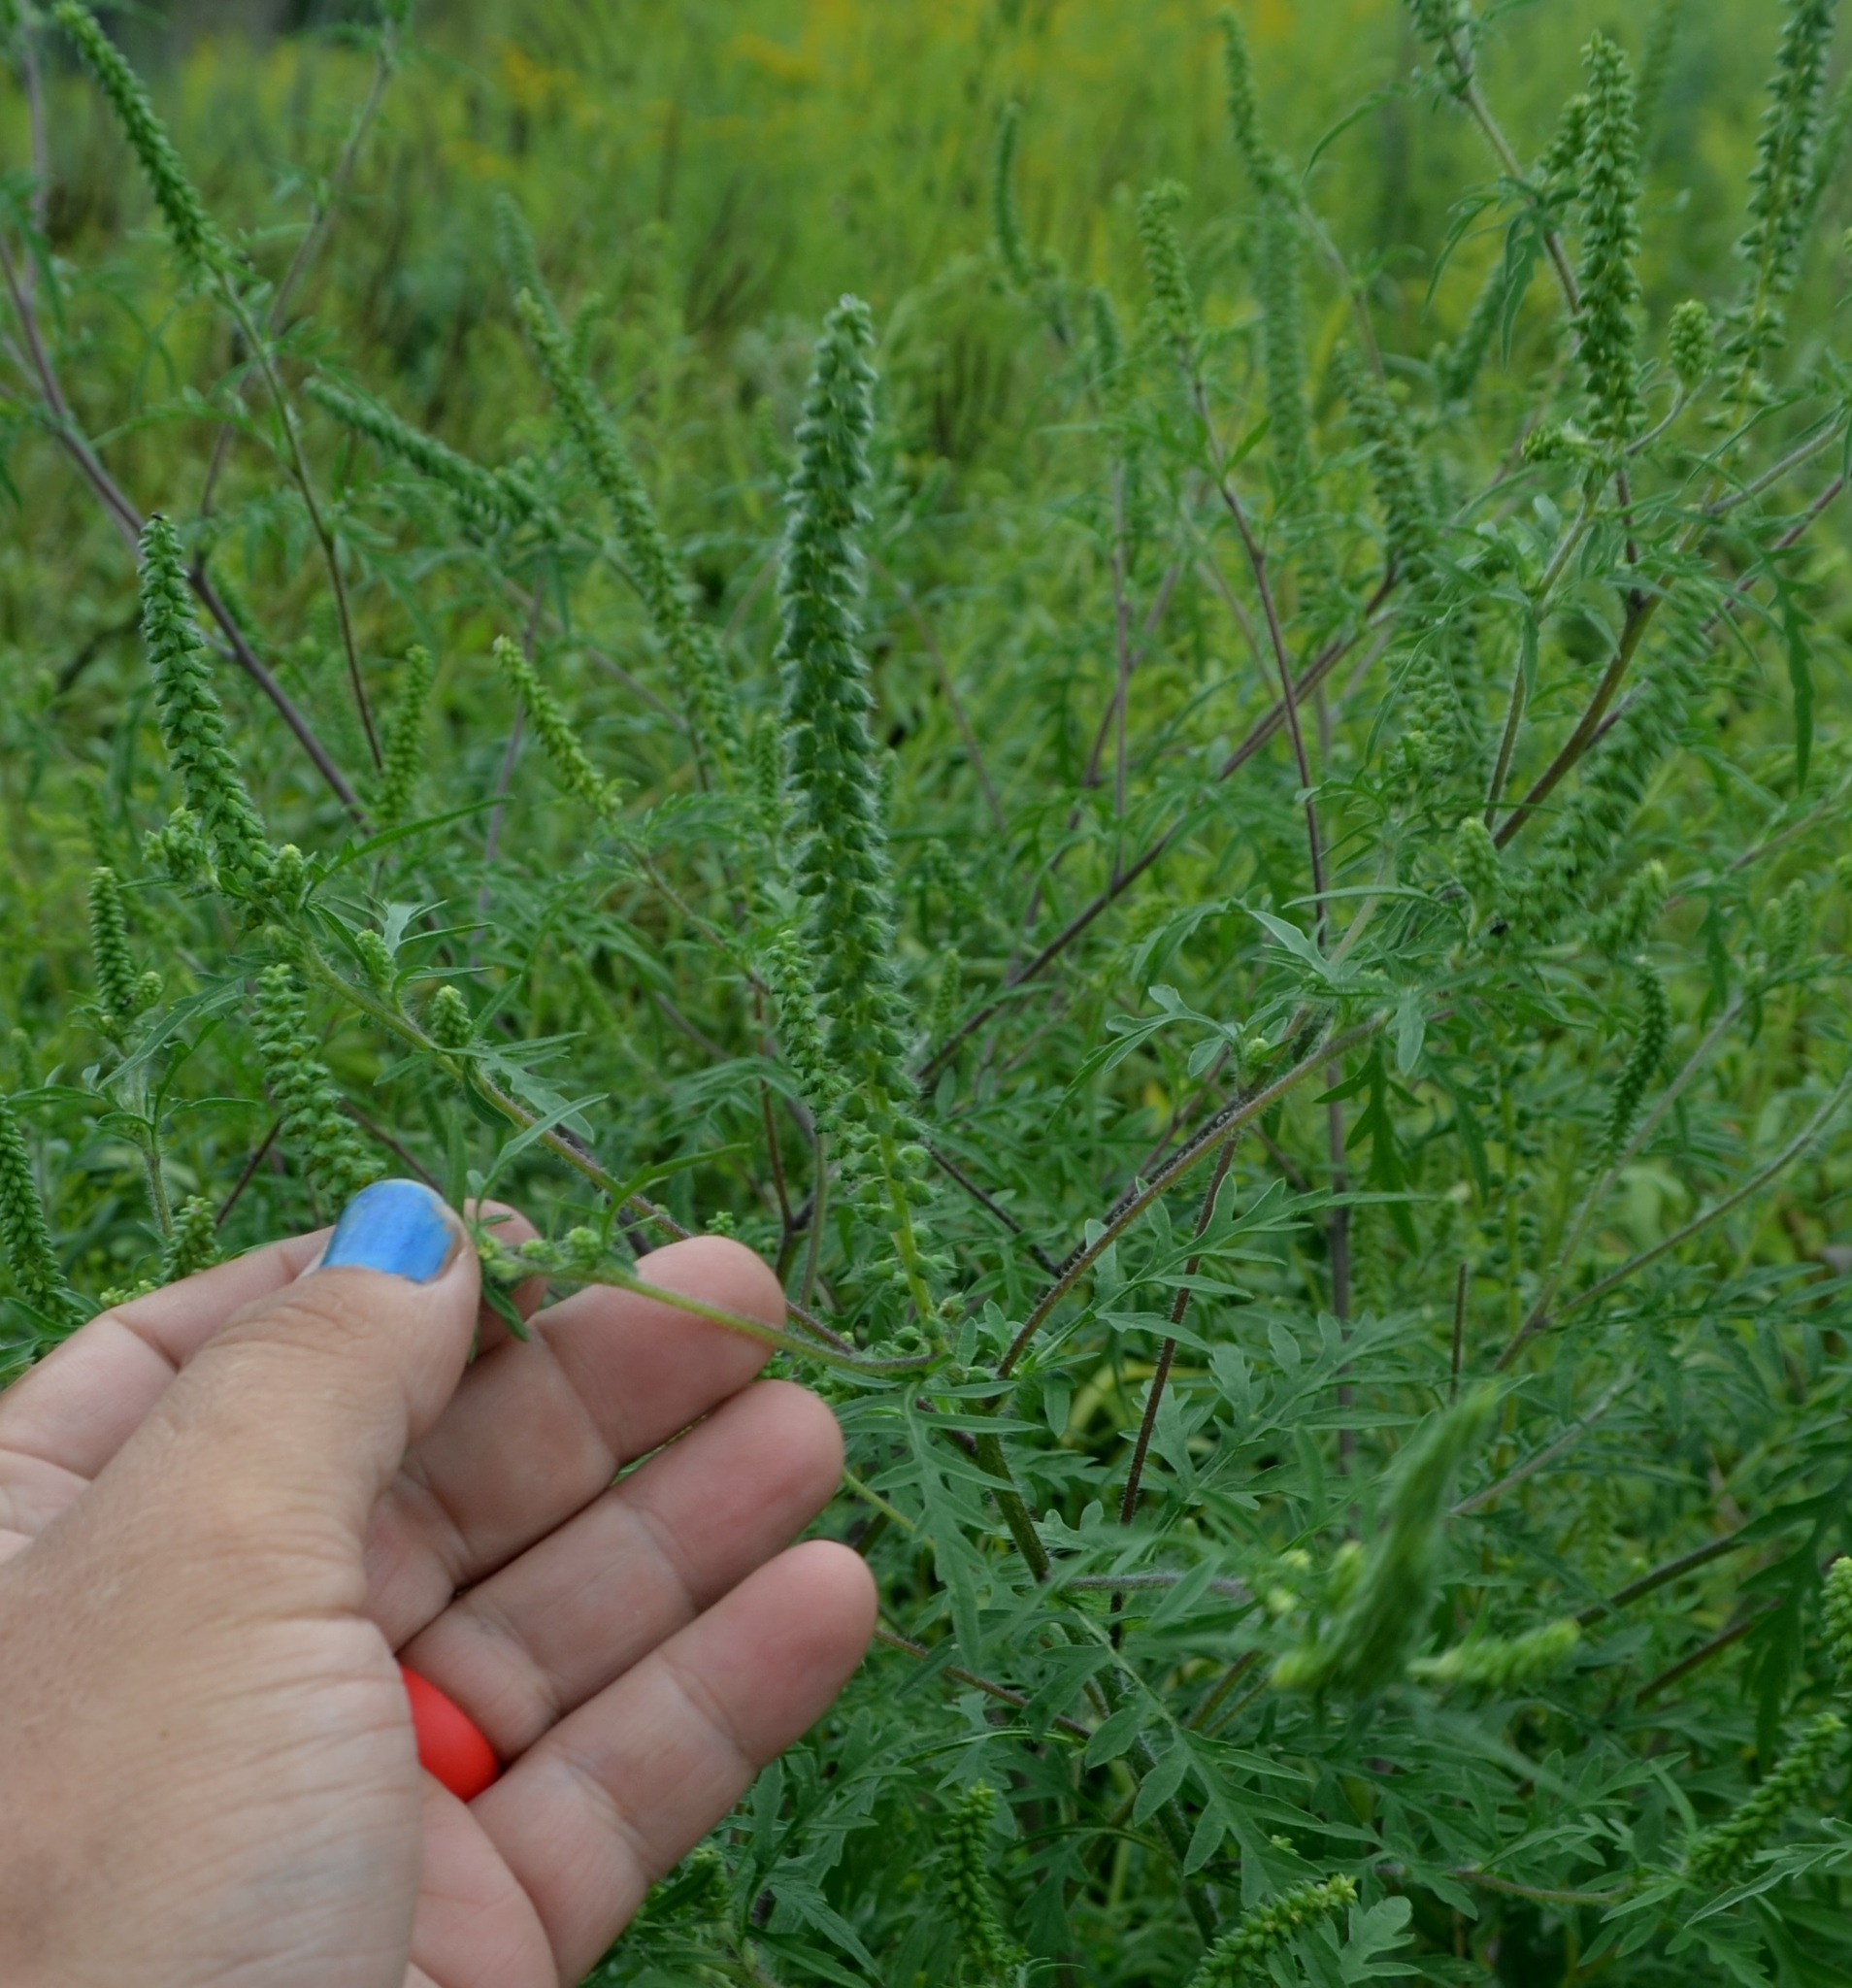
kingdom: Plantae
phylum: Tracheophyta
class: Magnoliopsida
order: Asterales
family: Asteraceae
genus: Ambrosia
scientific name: Ambrosia artemisiifolia
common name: Annual ragweed
